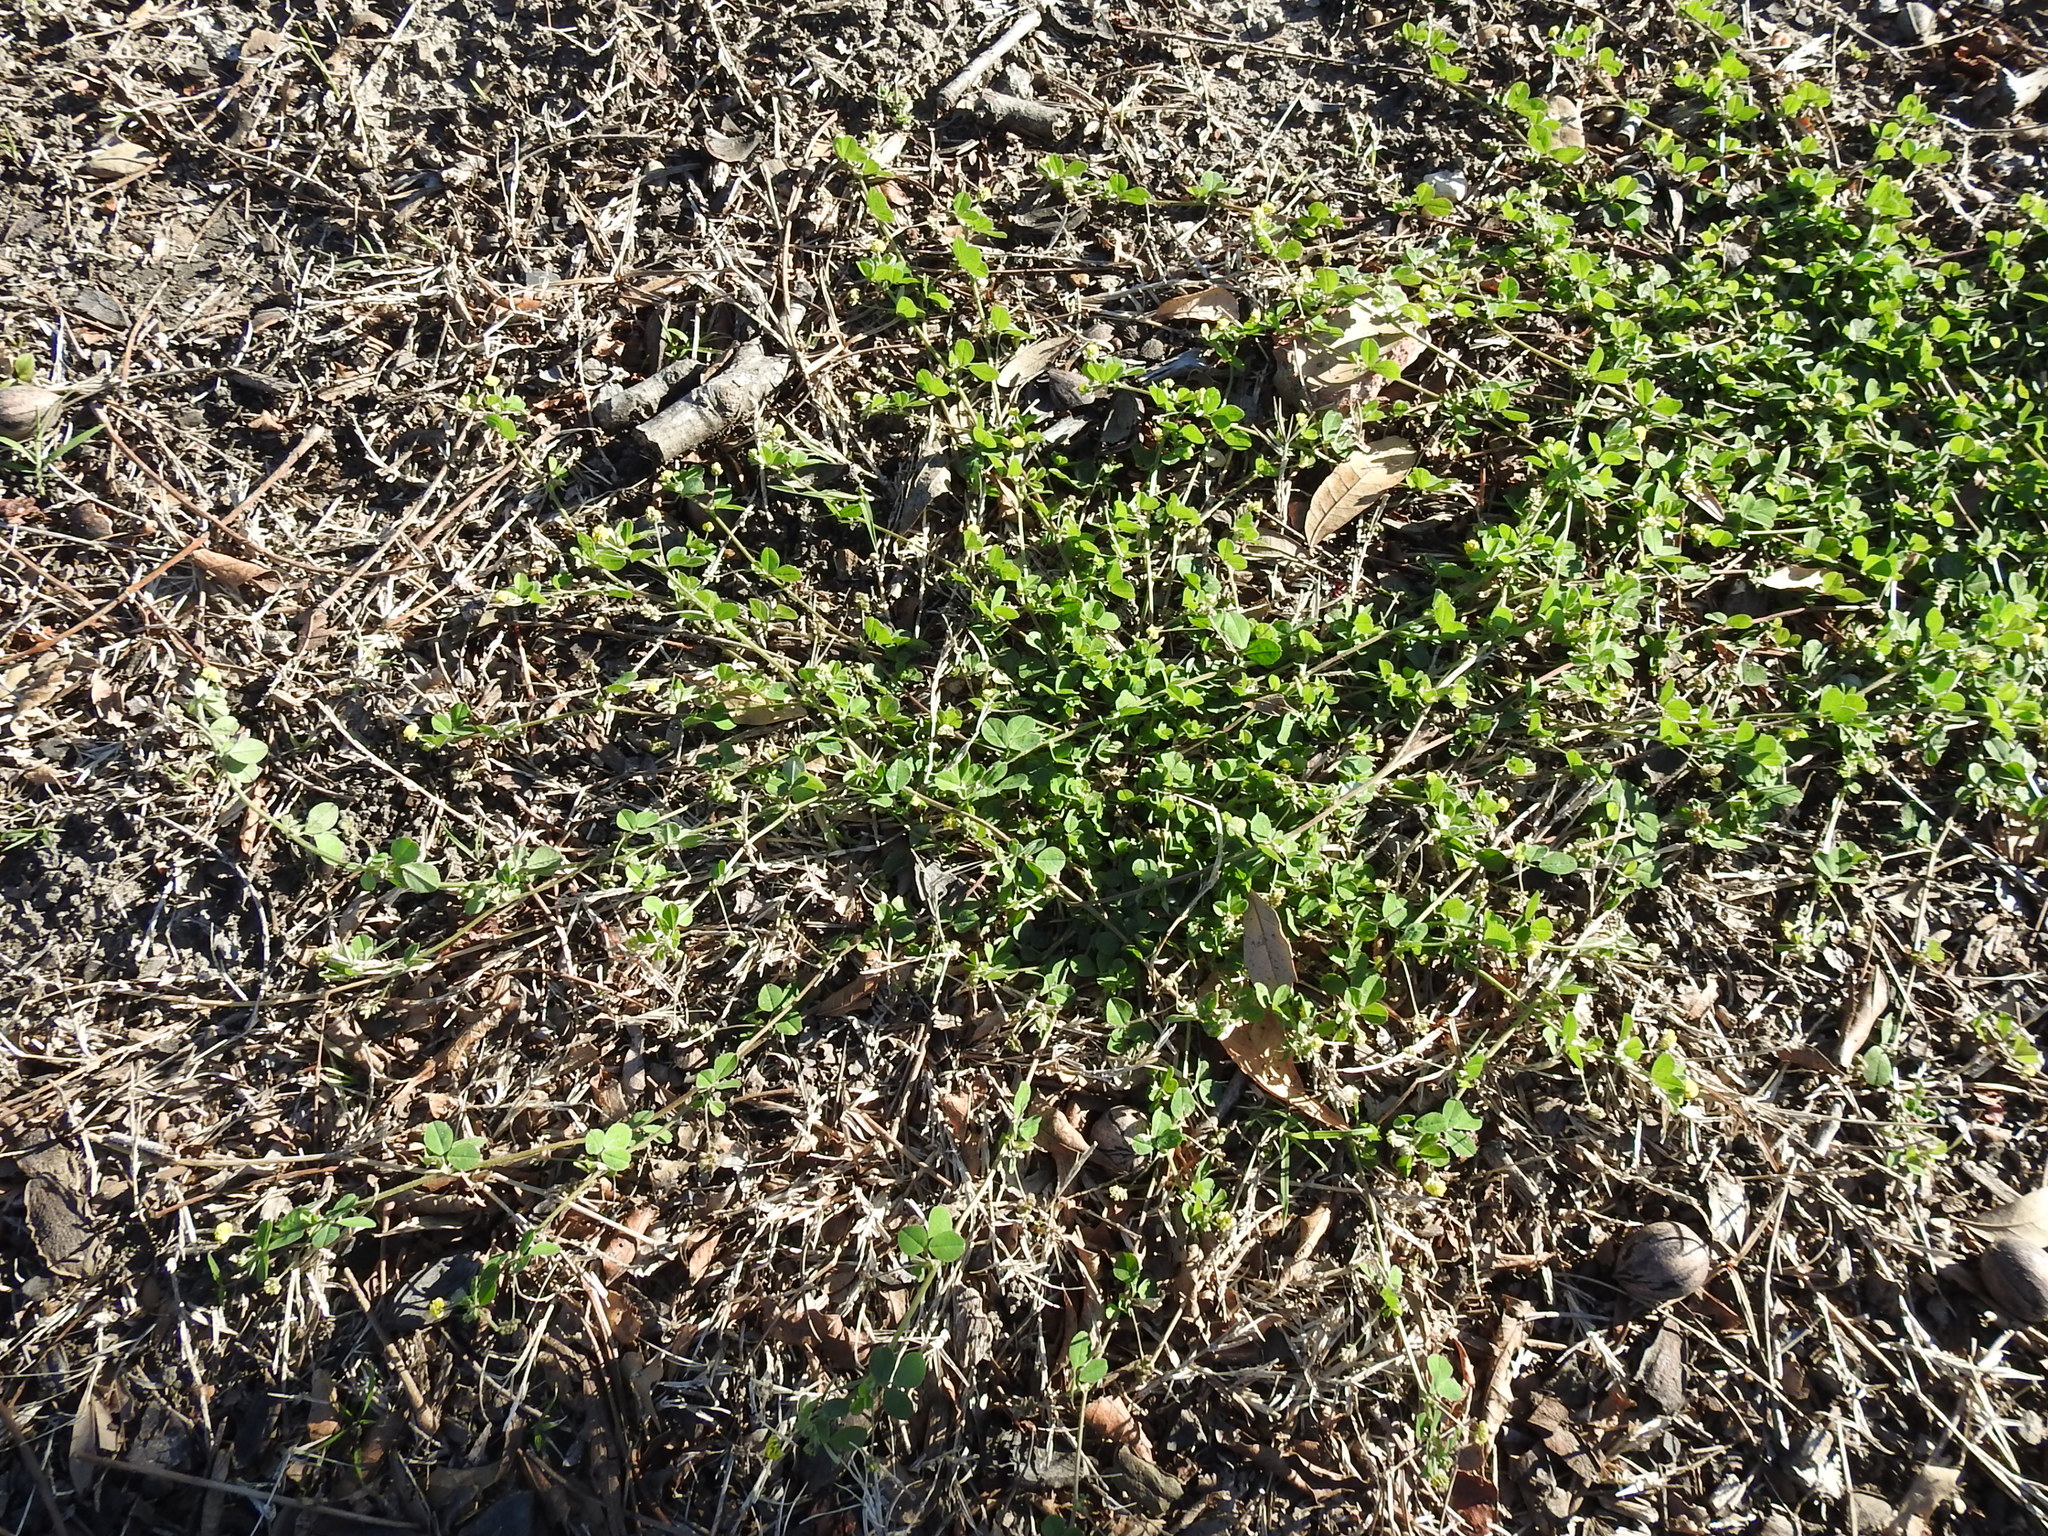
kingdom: Plantae
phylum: Tracheophyta
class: Magnoliopsida
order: Fabales
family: Fabaceae
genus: Medicago
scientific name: Medicago lupulina
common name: Black medick
